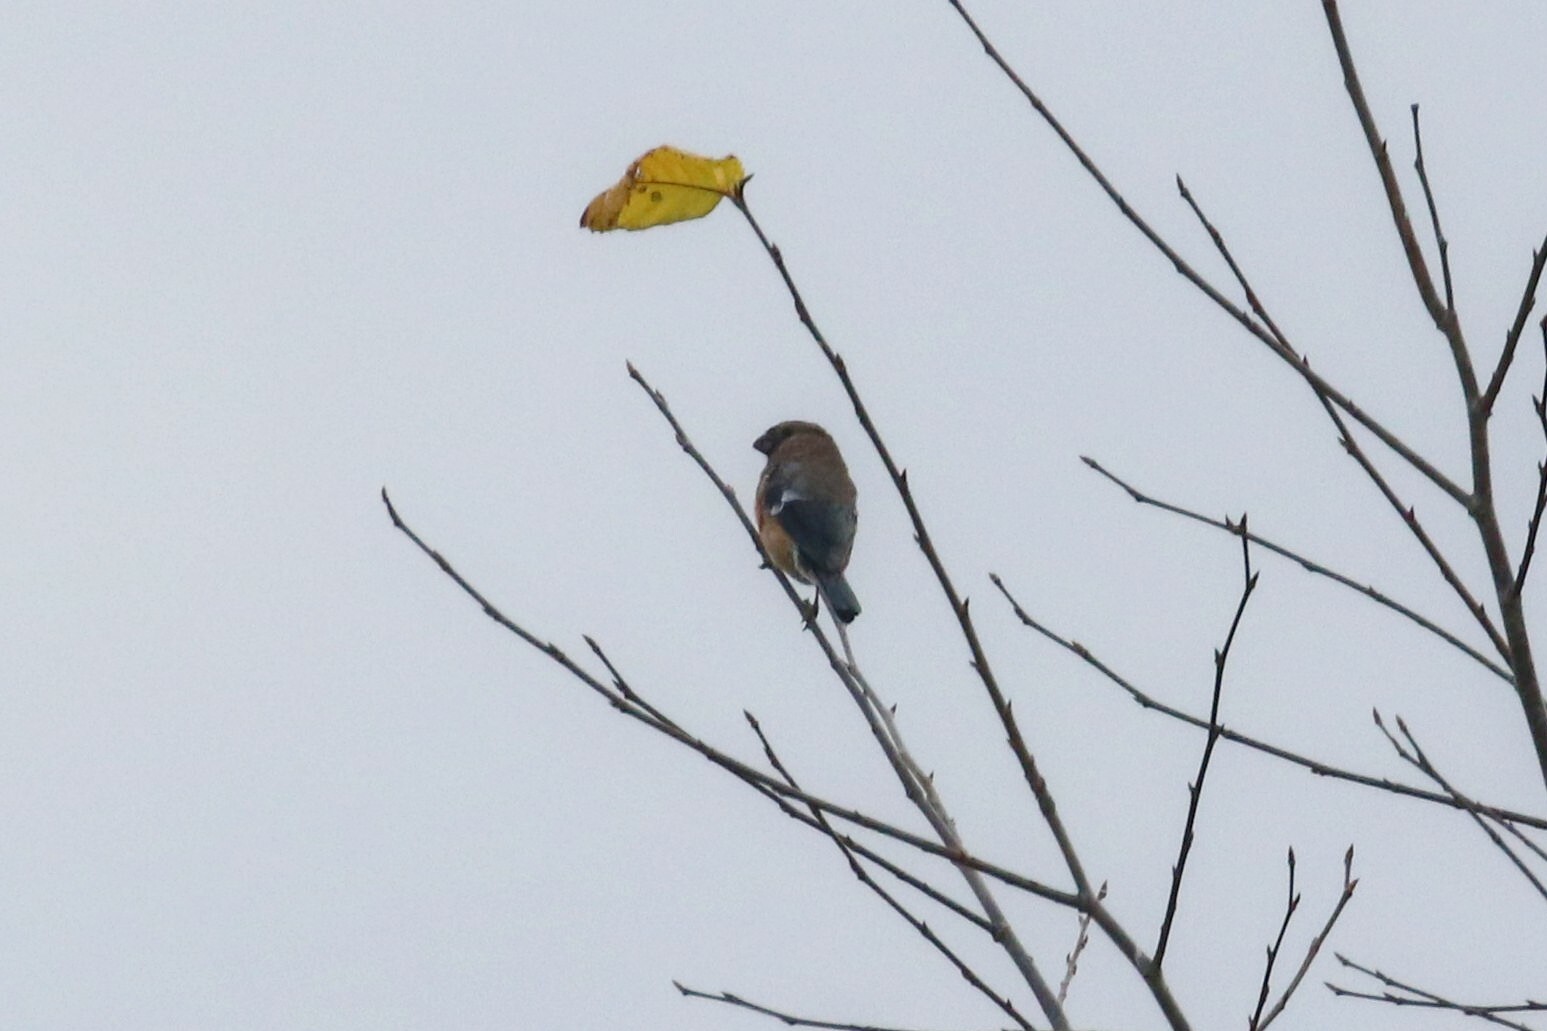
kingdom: Animalia
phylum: Chordata
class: Aves
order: Passeriformes
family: Fringillidae
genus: Pyrrhula
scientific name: Pyrrhula pyrrhula
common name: Eurasian bullfinch
